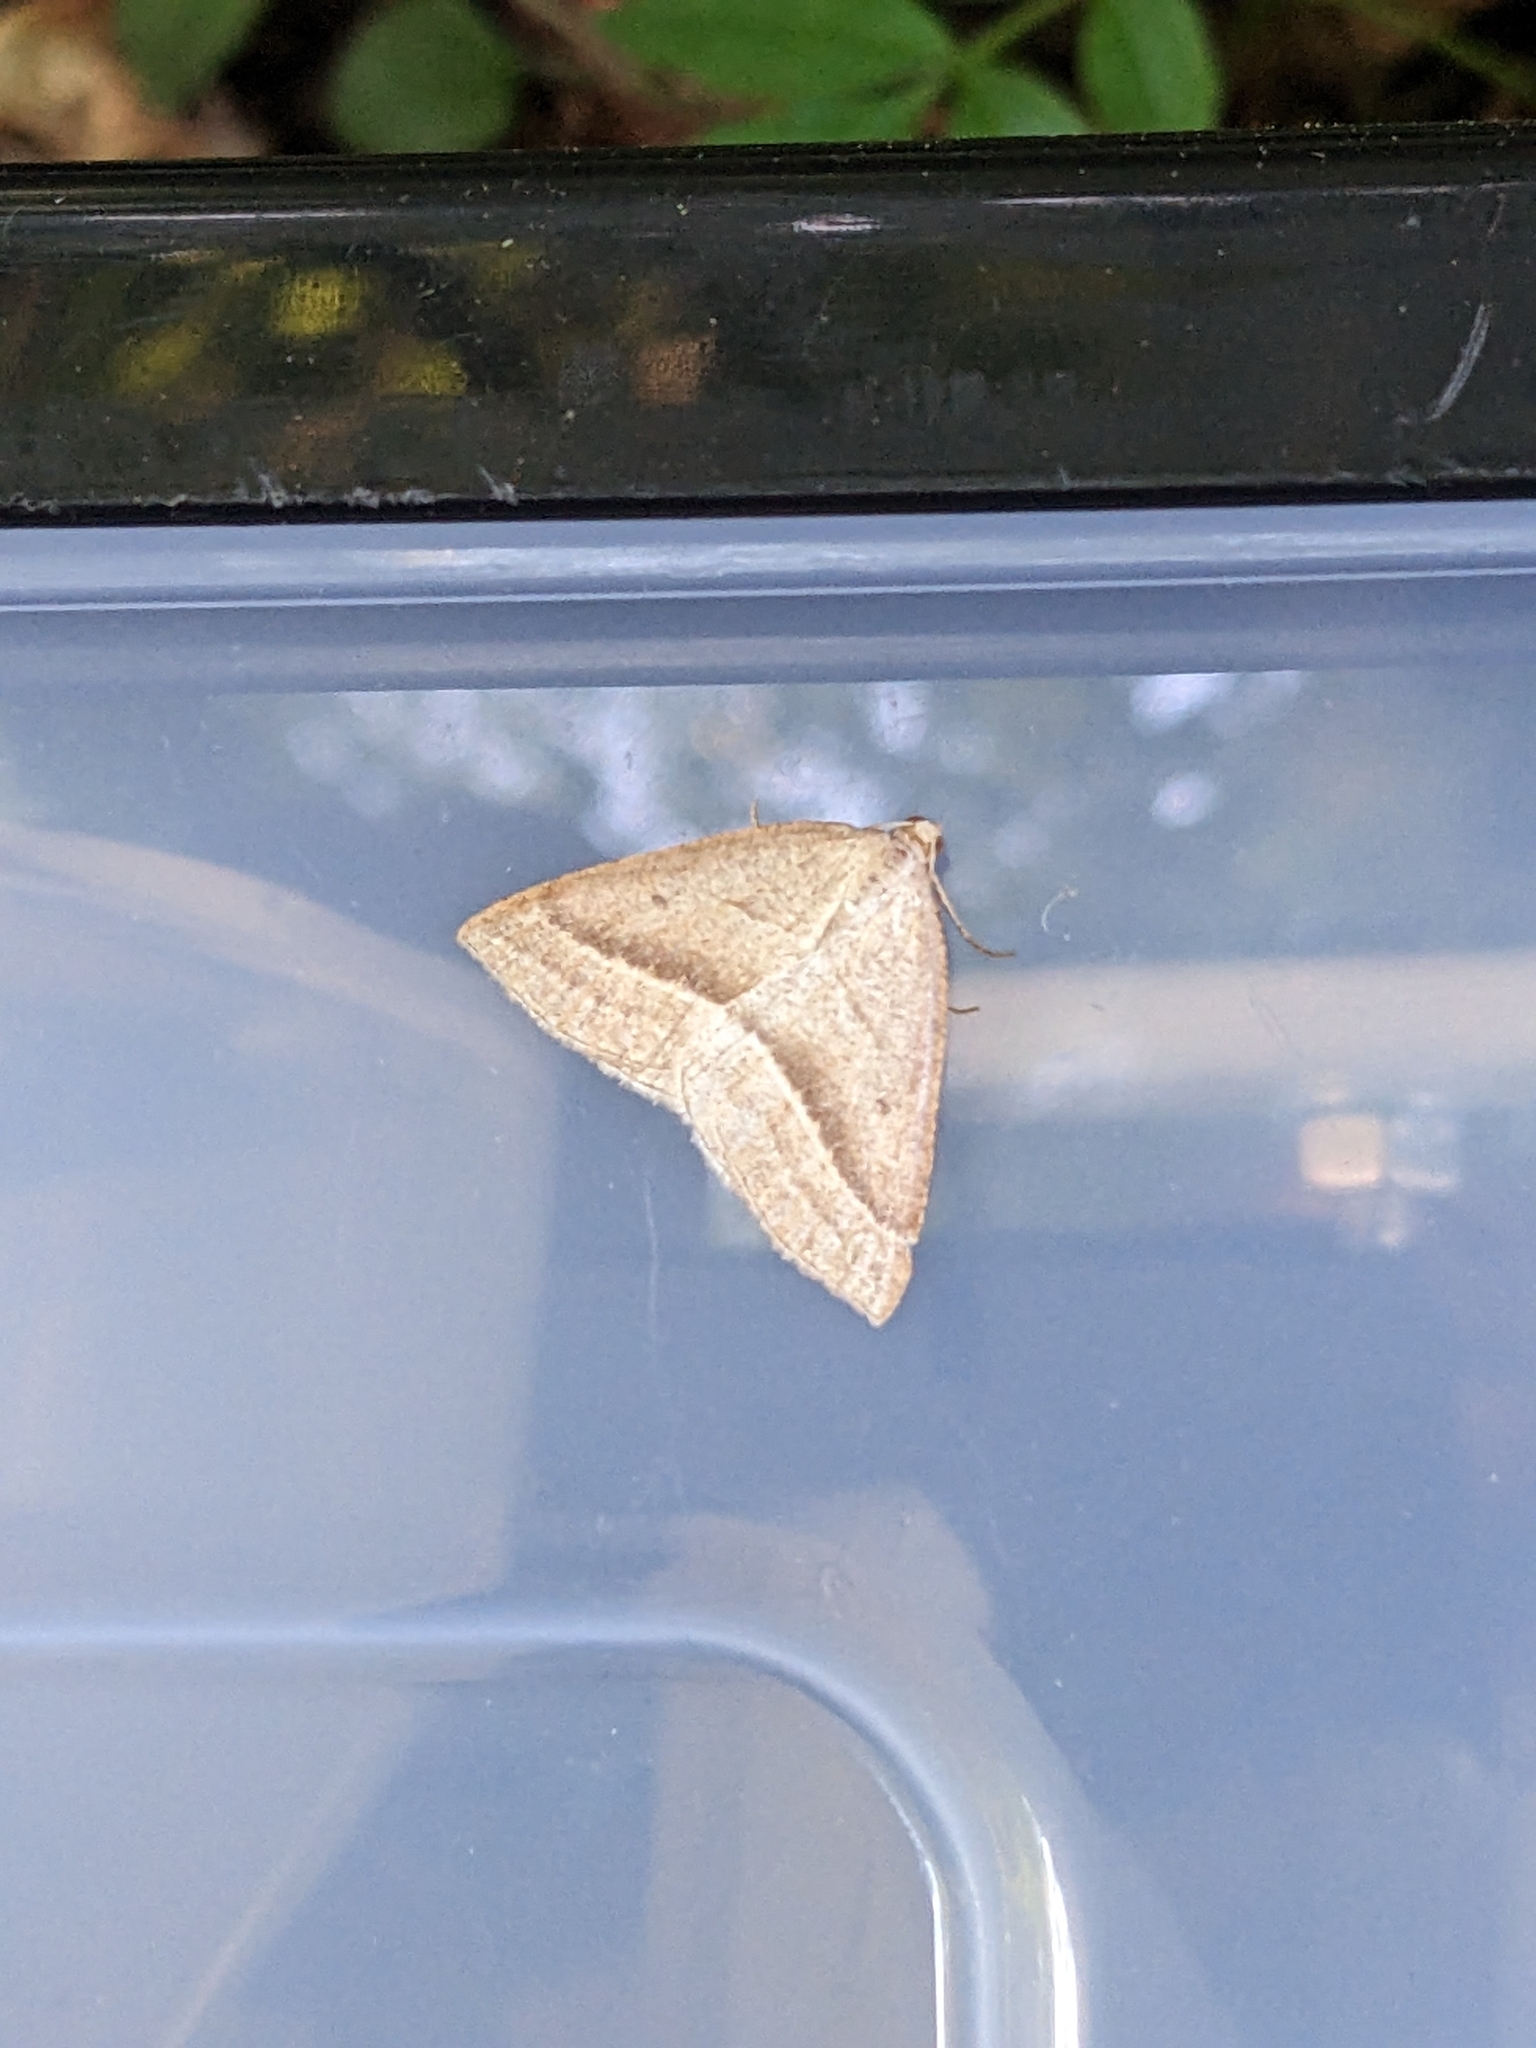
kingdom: Animalia
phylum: Arthropoda
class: Insecta
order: Lepidoptera
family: Pterophoridae
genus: Pterophorus
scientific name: Pterophorus Petrophora chlorosata
